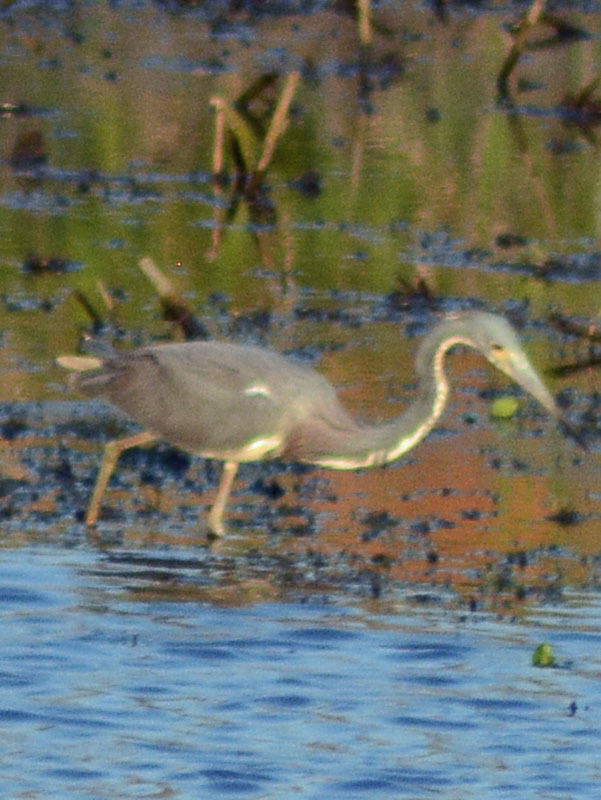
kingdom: Animalia
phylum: Chordata
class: Aves
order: Pelecaniformes
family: Ardeidae
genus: Egretta
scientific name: Egretta tricolor
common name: Tricolored heron
